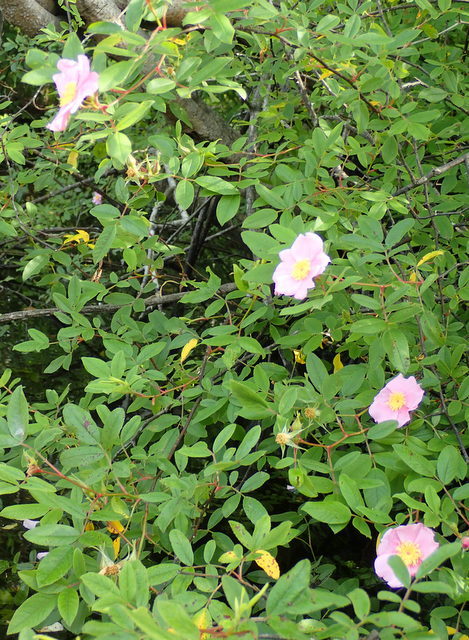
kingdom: Plantae
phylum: Tracheophyta
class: Magnoliopsida
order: Rosales
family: Rosaceae
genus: Rosa
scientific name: Rosa palustris
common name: Swamp rose
